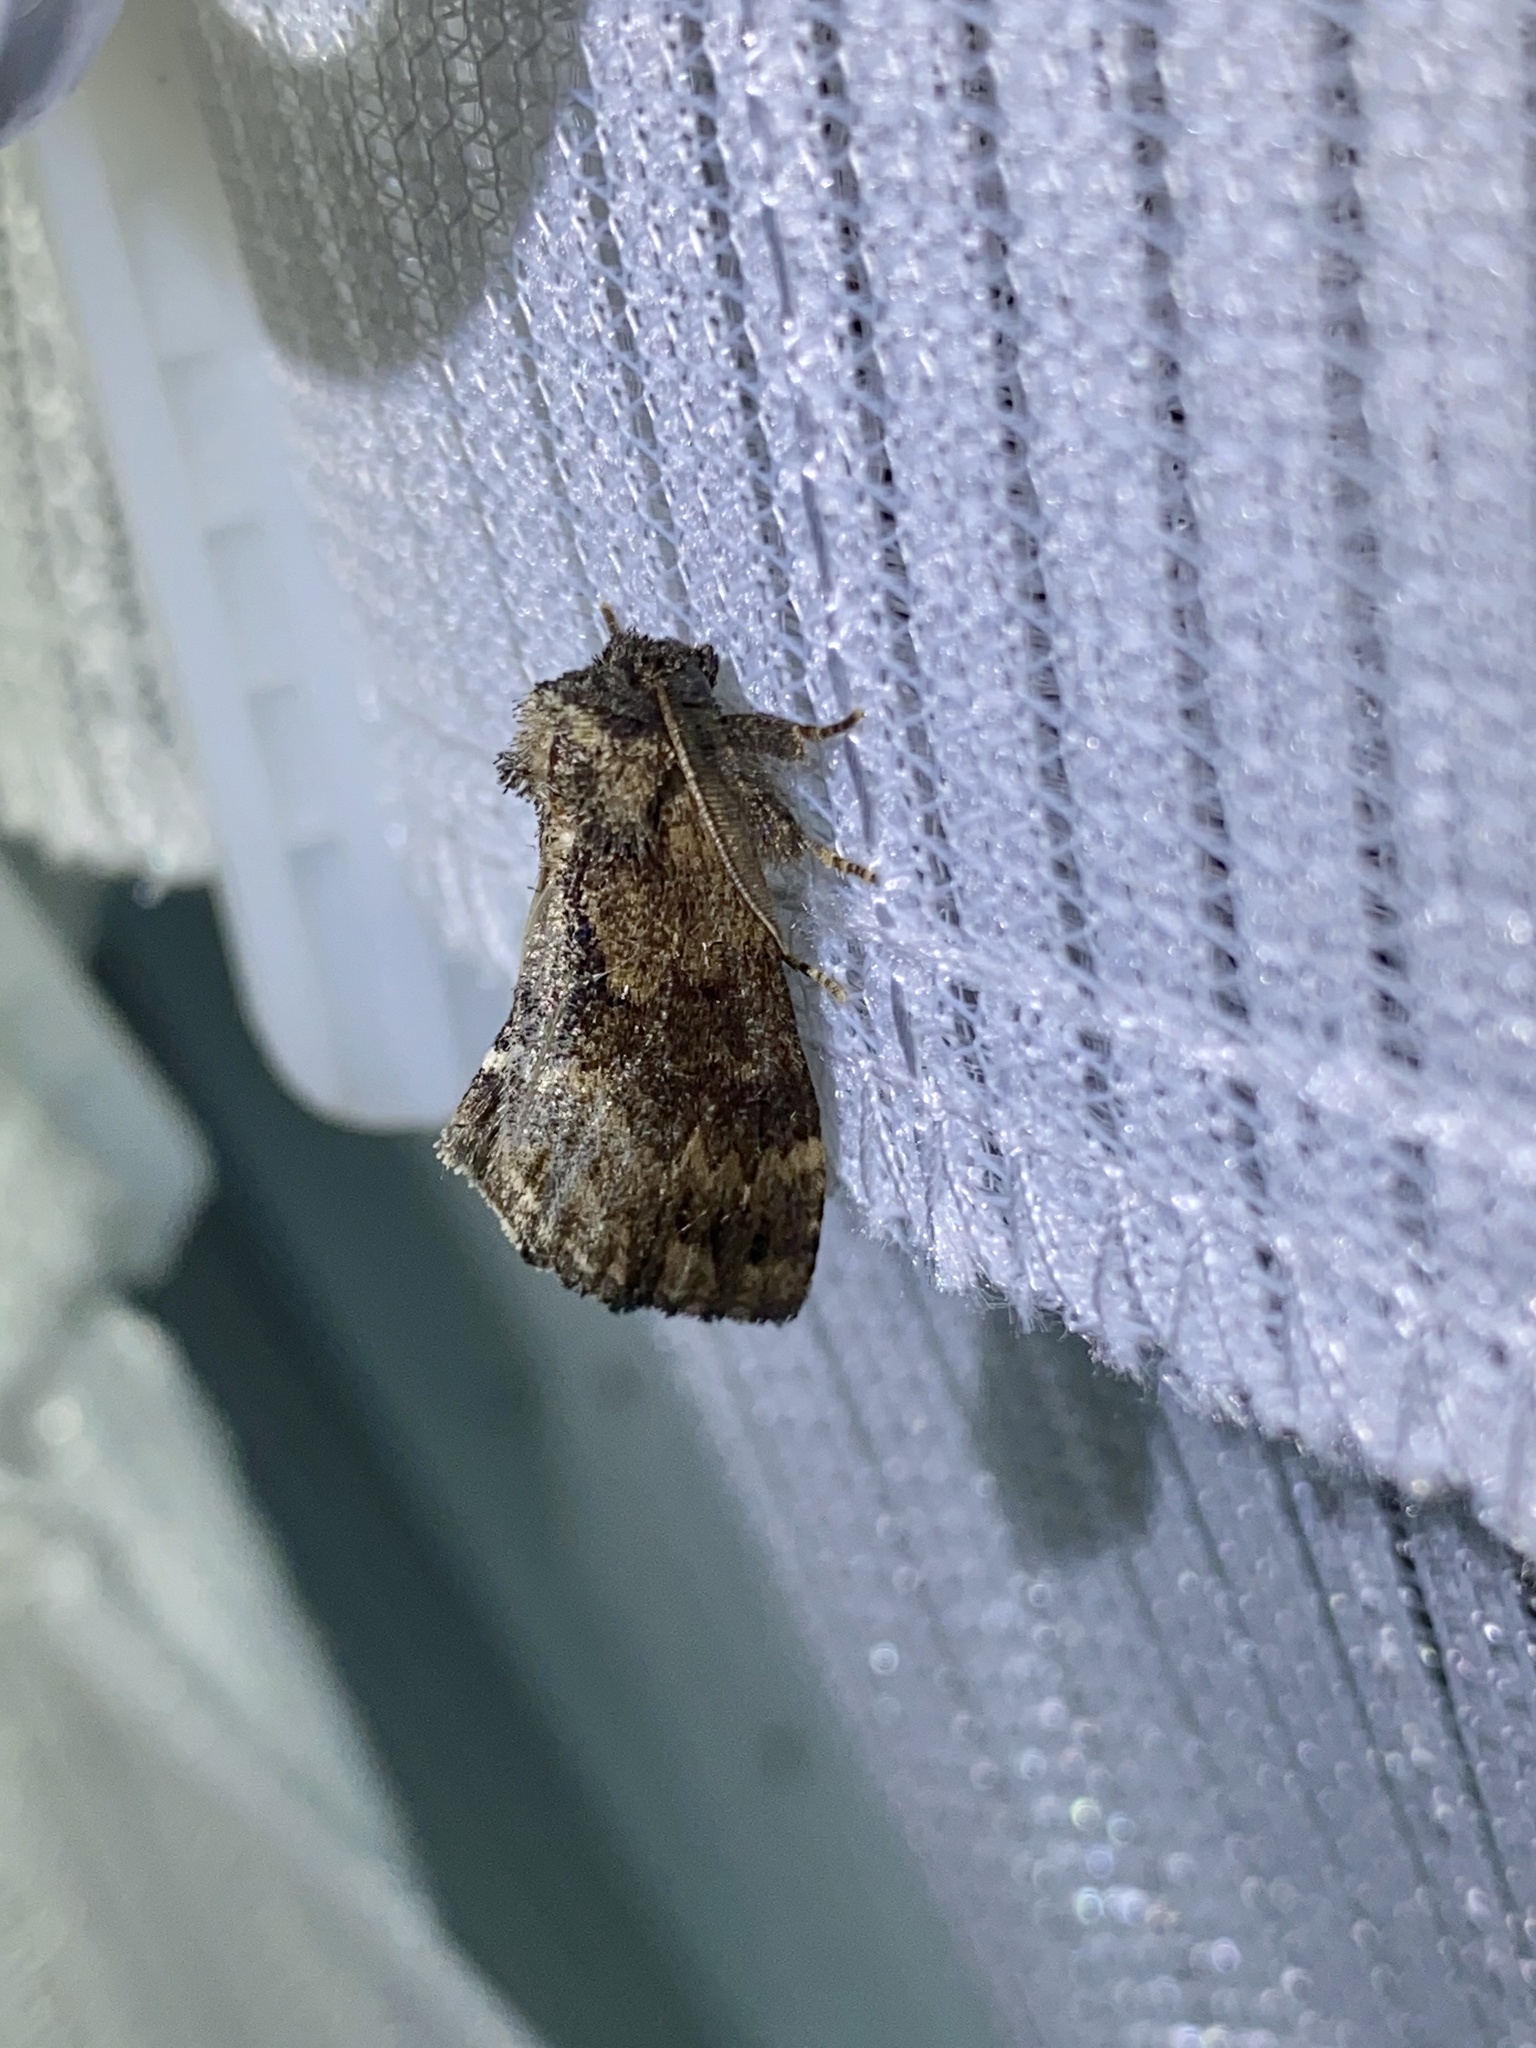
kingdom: Animalia
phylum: Arthropoda
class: Insecta
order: Lepidoptera
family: Notodontidae
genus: Lophontosia
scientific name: Lophontosia
